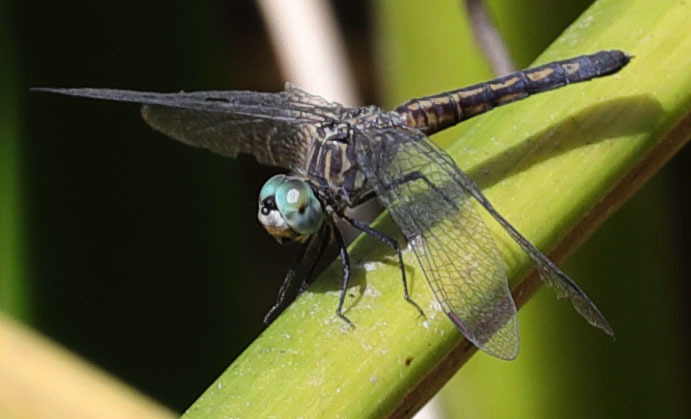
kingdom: Animalia
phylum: Arthropoda
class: Insecta
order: Odonata
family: Libellulidae
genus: Pachydiplax
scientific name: Pachydiplax longipennis
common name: Blue dasher
